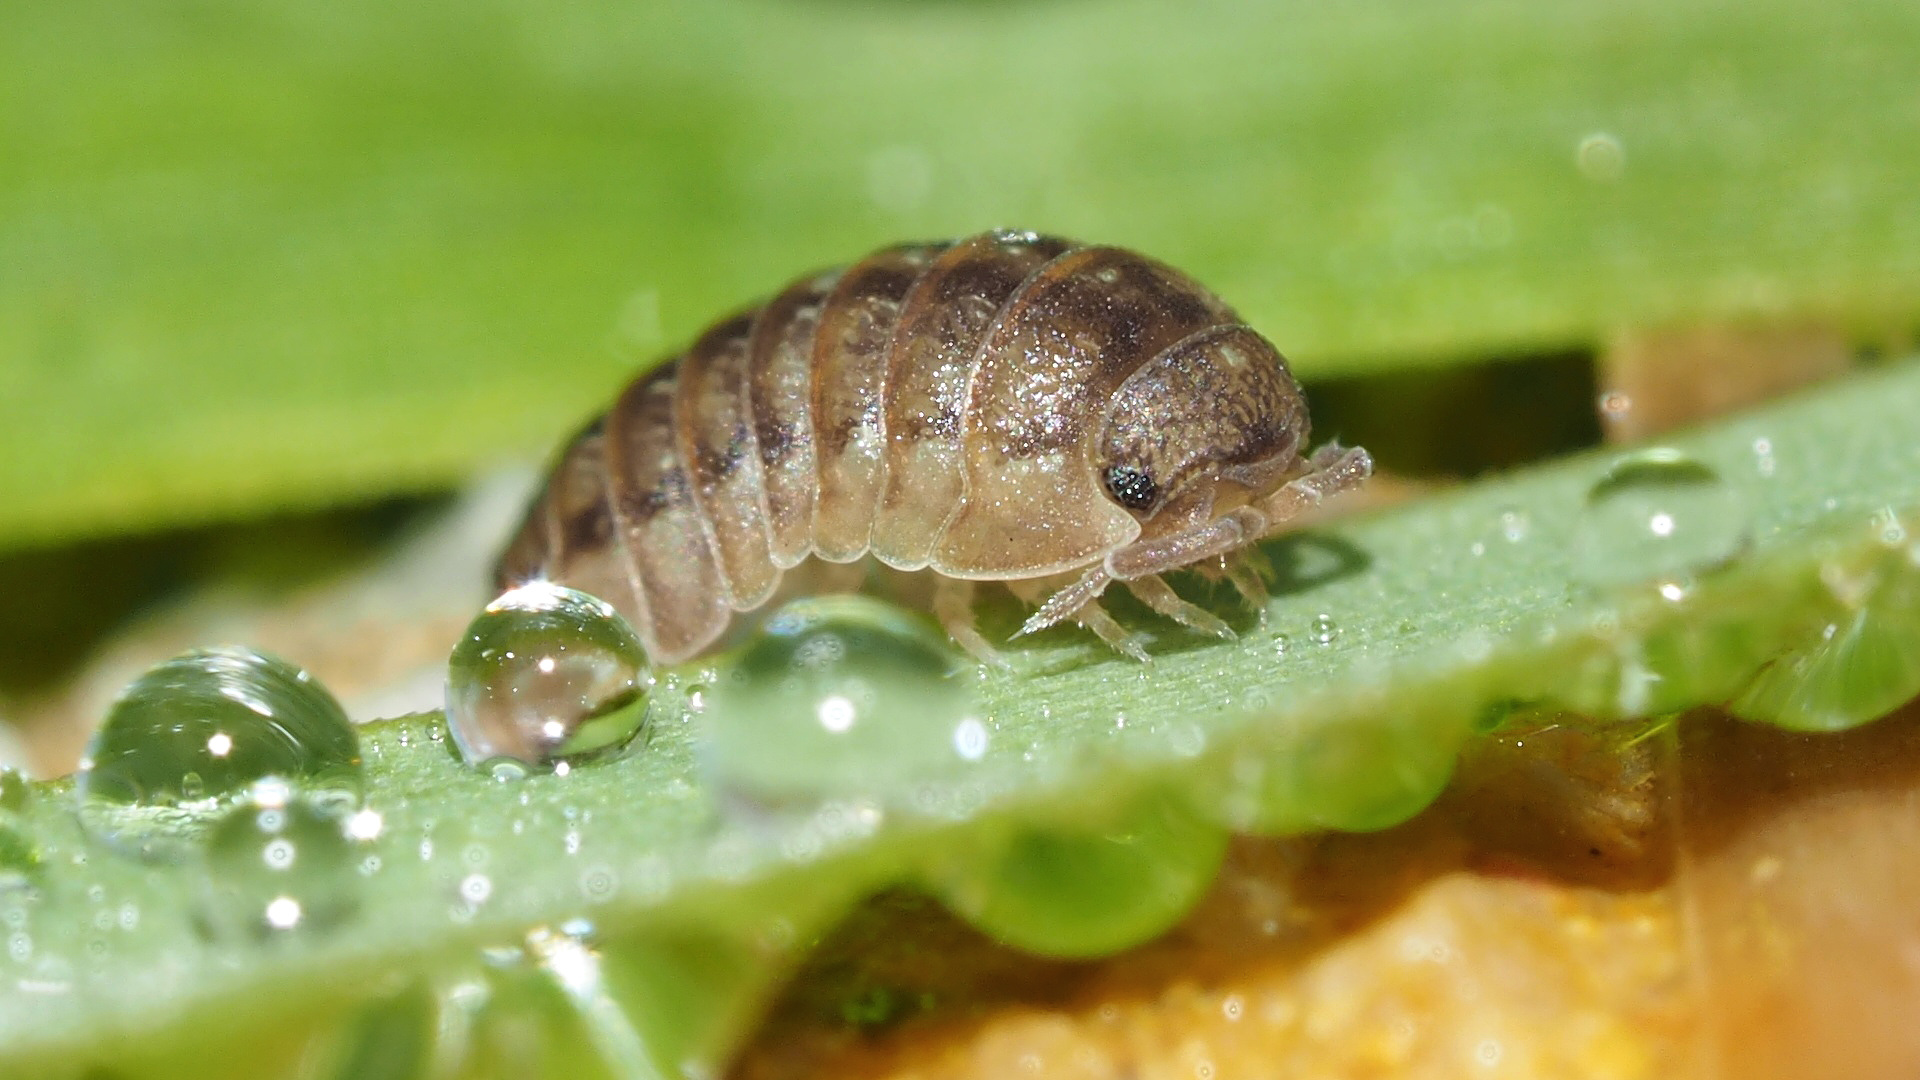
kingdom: Animalia
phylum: Arthropoda
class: Malacostraca
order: Isopoda
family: Armadillidiidae
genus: Armadillidium
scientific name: Armadillidium decorum
